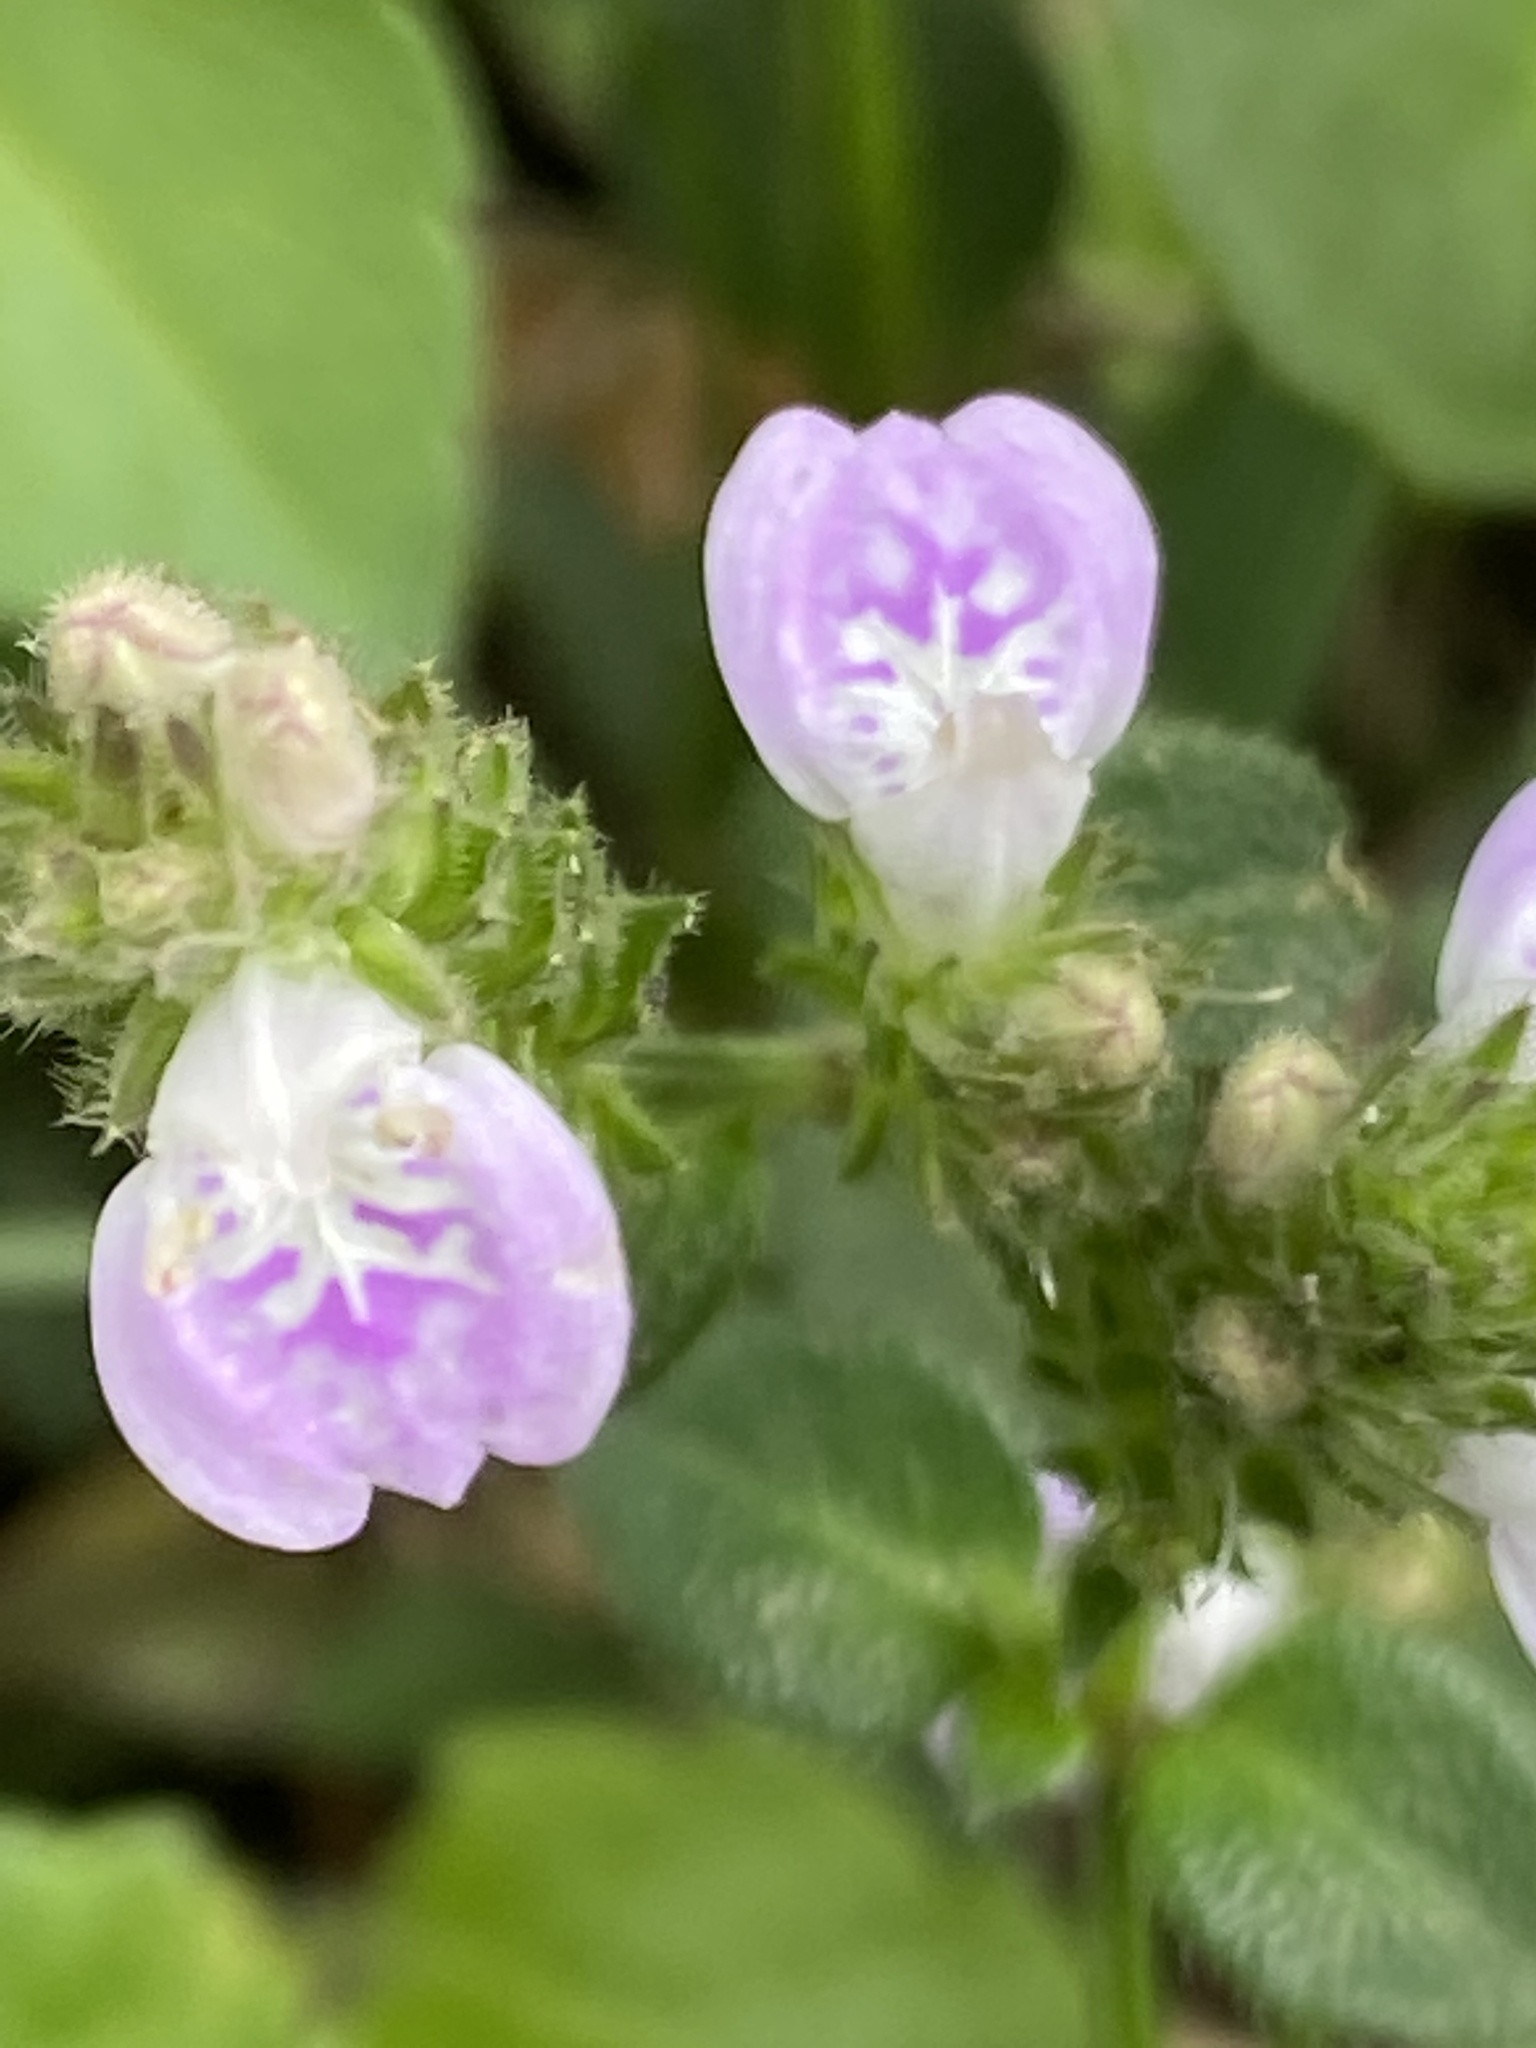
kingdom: Plantae
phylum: Tracheophyta
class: Magnoliopsida
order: Lamiales
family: Acanthaceae
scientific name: Acanthaceae
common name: Acanthaceae
